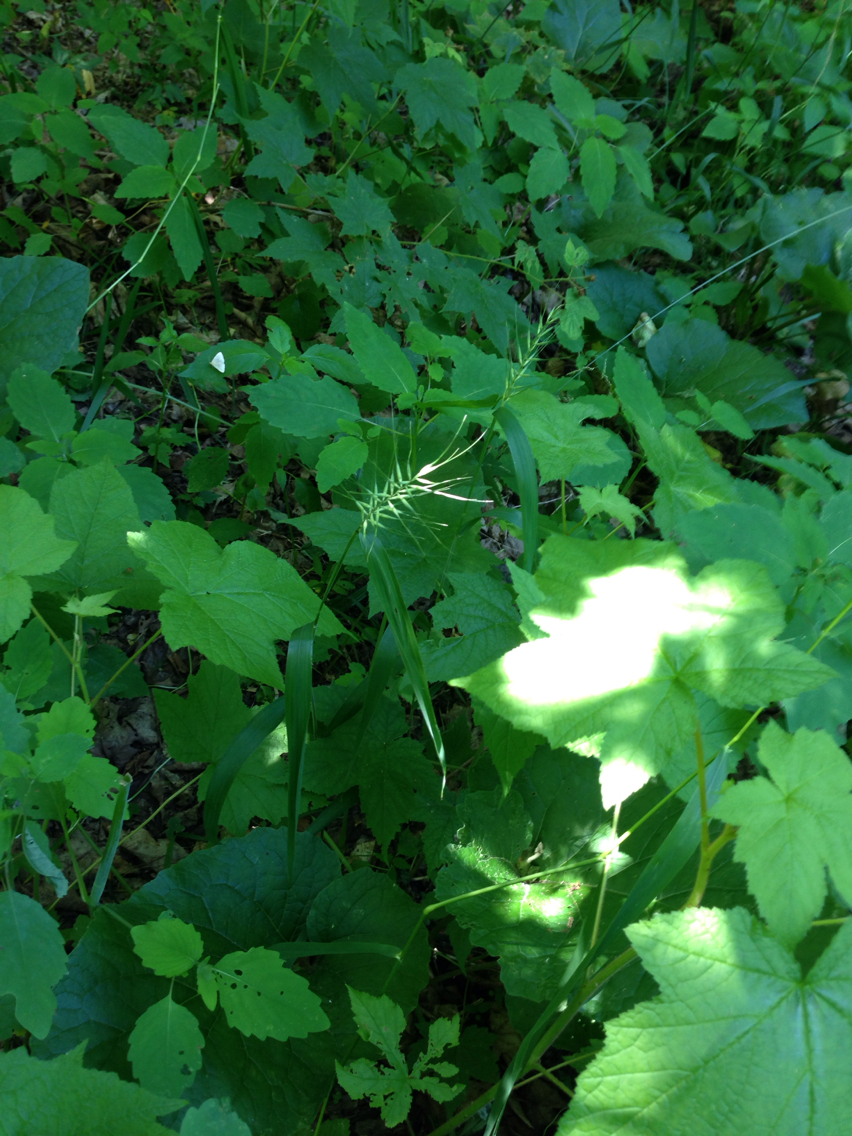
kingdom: Plantae
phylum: Tracheophyta
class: Liliopsida
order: Poales
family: Poaceae
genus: Elymus
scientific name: Elymus hystrix
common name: Bottlebrush grass
